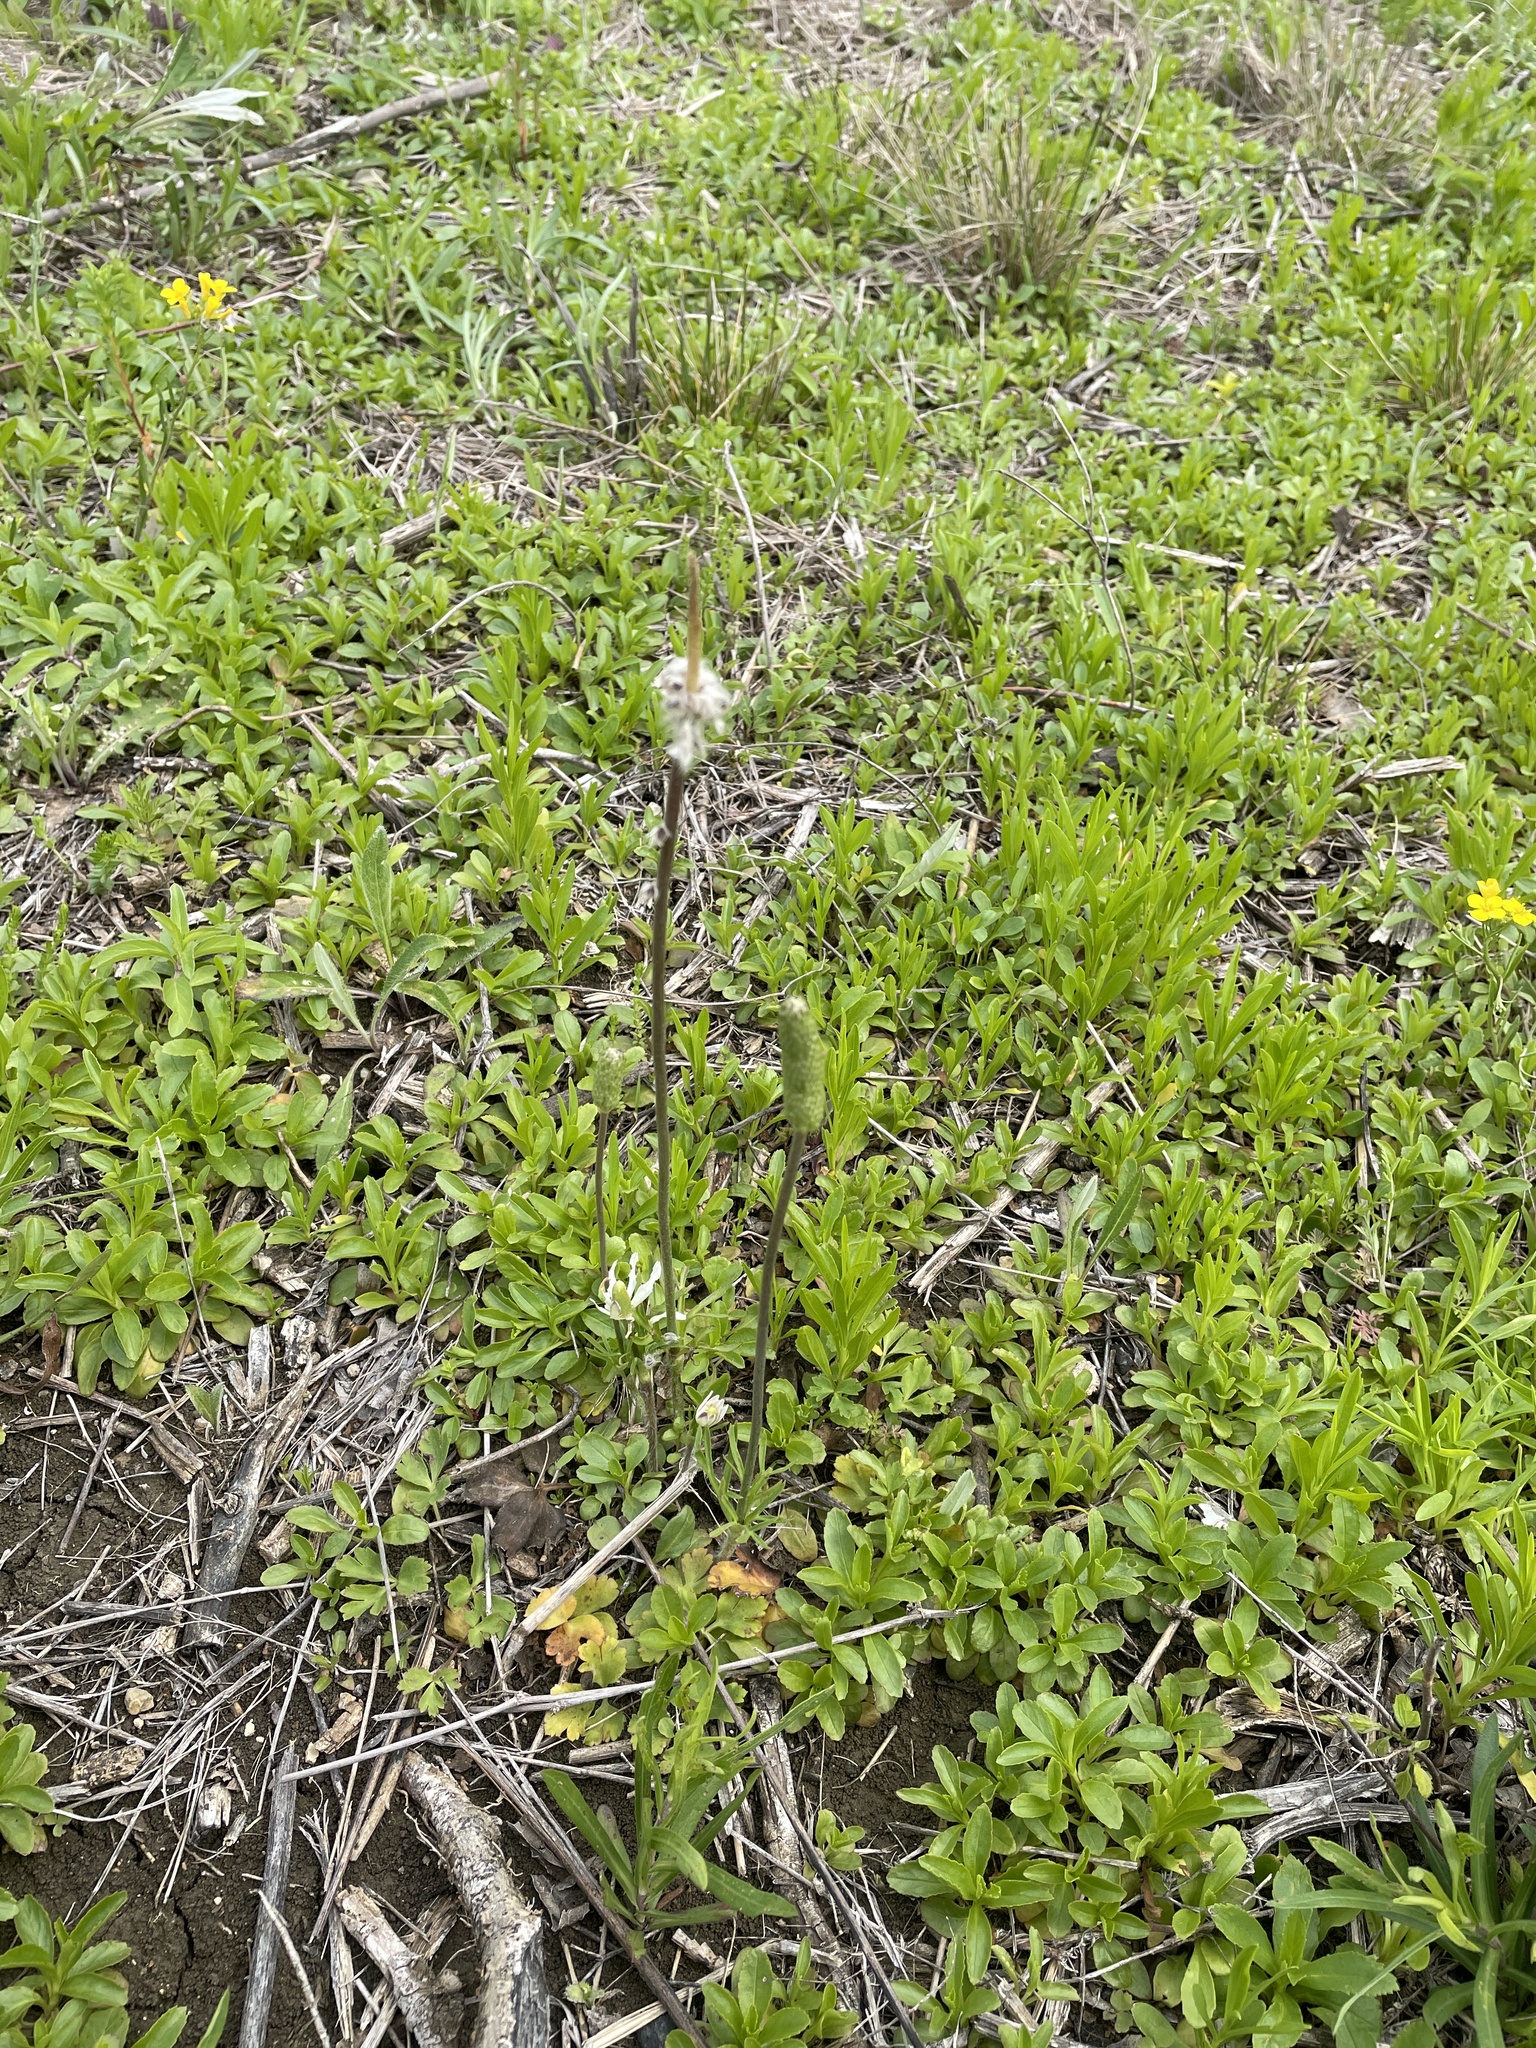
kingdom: Plantae
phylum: Tracheophyta
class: Magnoliopsida
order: Ranunculales
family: Ranunculaceae
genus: Anemone
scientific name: Anemone berlandieri
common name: Ten-petal anemone
